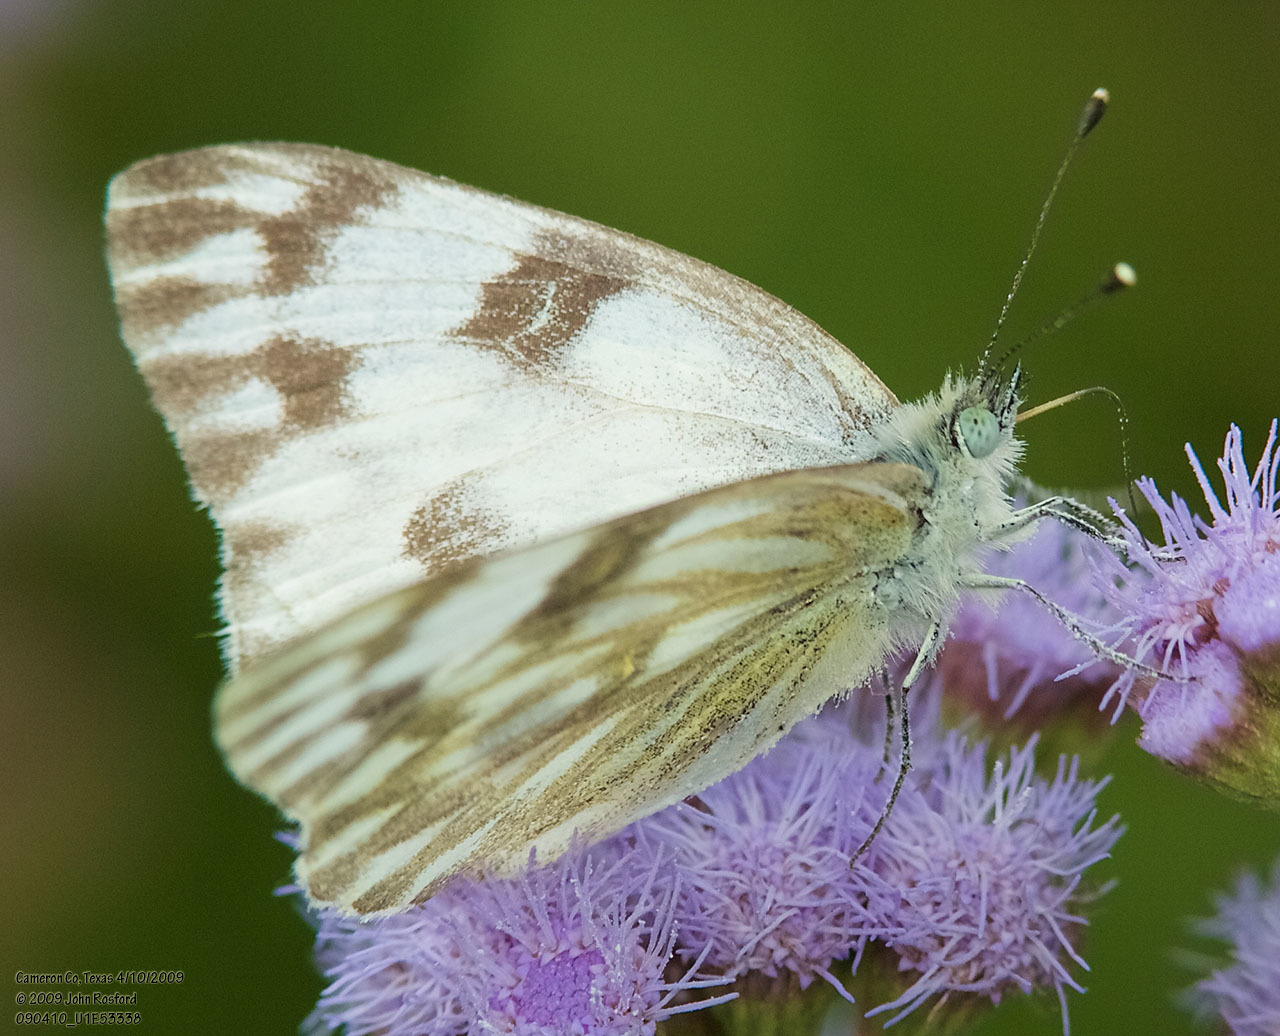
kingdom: Animalia
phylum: Arthropoda
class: Insecta
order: Lepidoptera
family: Pieridae
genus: Pontia
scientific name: Pontia protodice
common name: Checkered white
